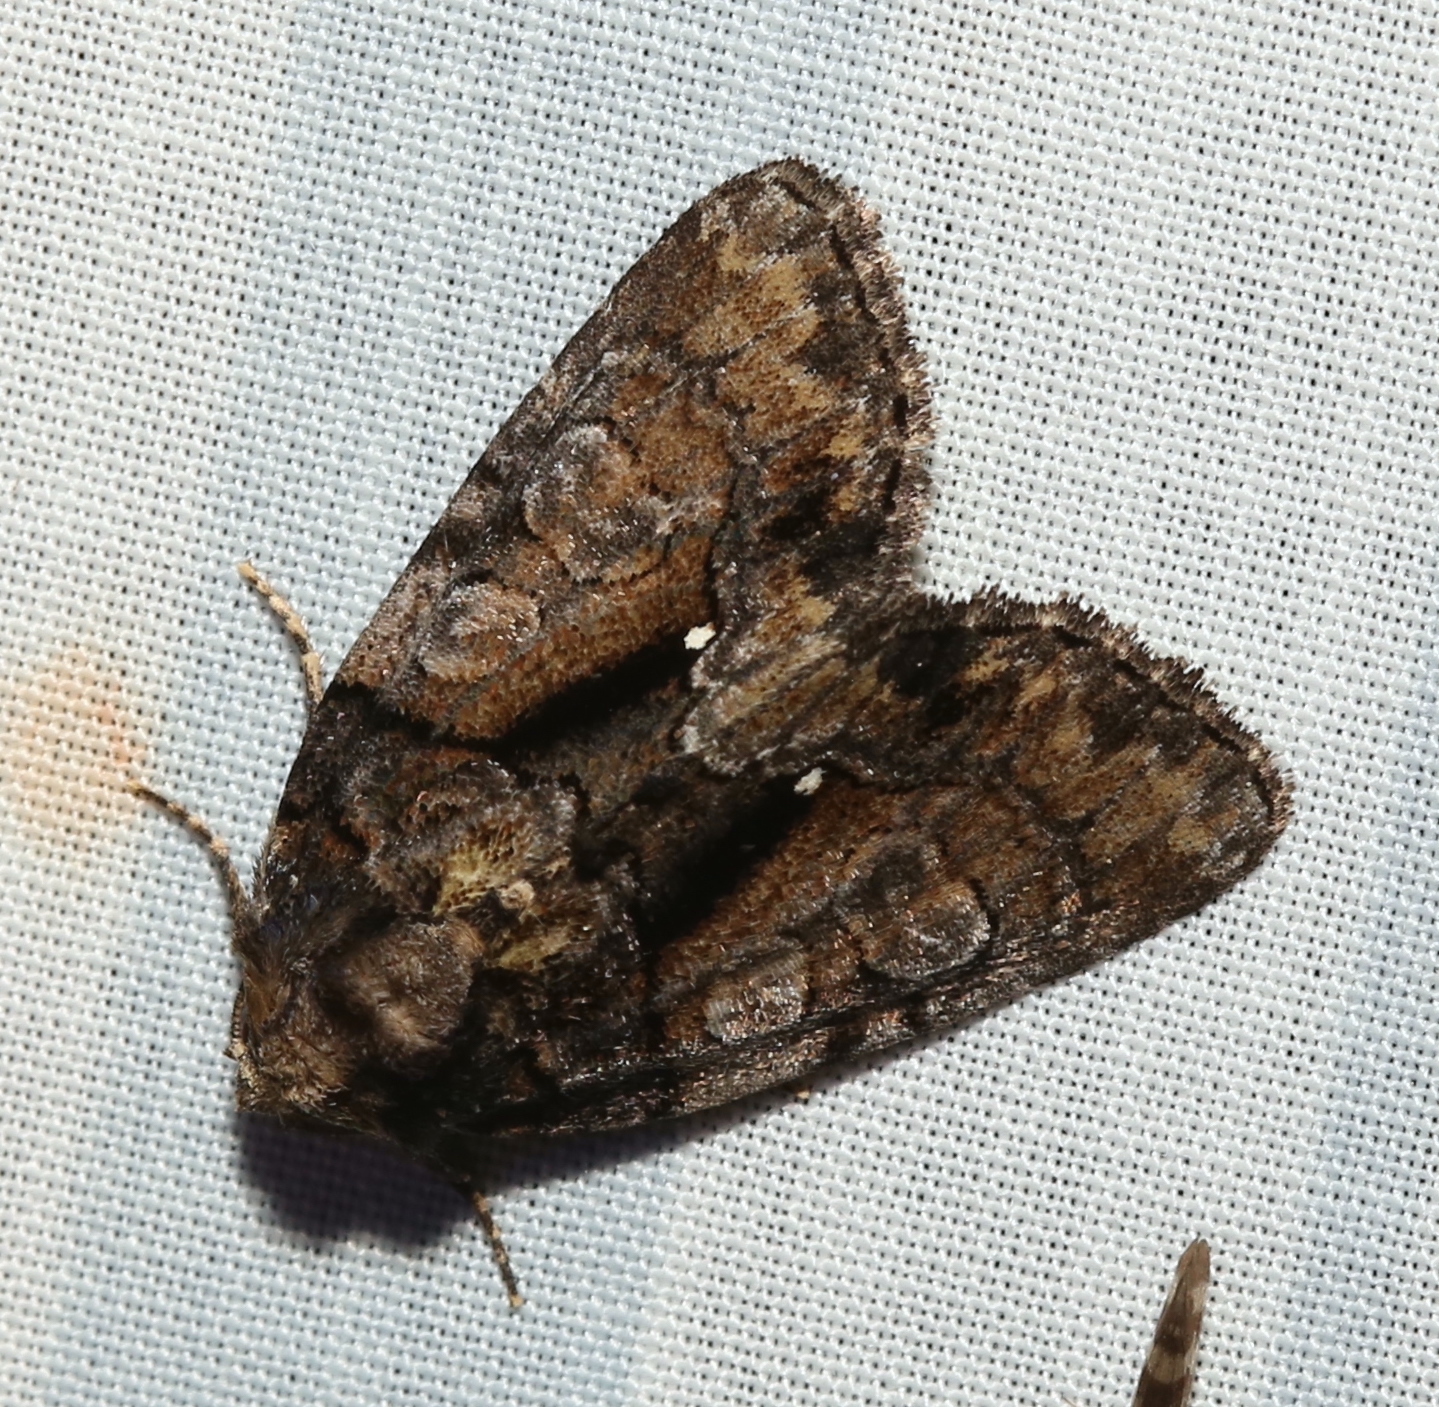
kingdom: Animalia
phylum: Arthropoda
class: Insecta
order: Lepidoptera
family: Noctuidae
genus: Chytonix
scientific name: Chytonix palliatricula
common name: Cloaked marvel
